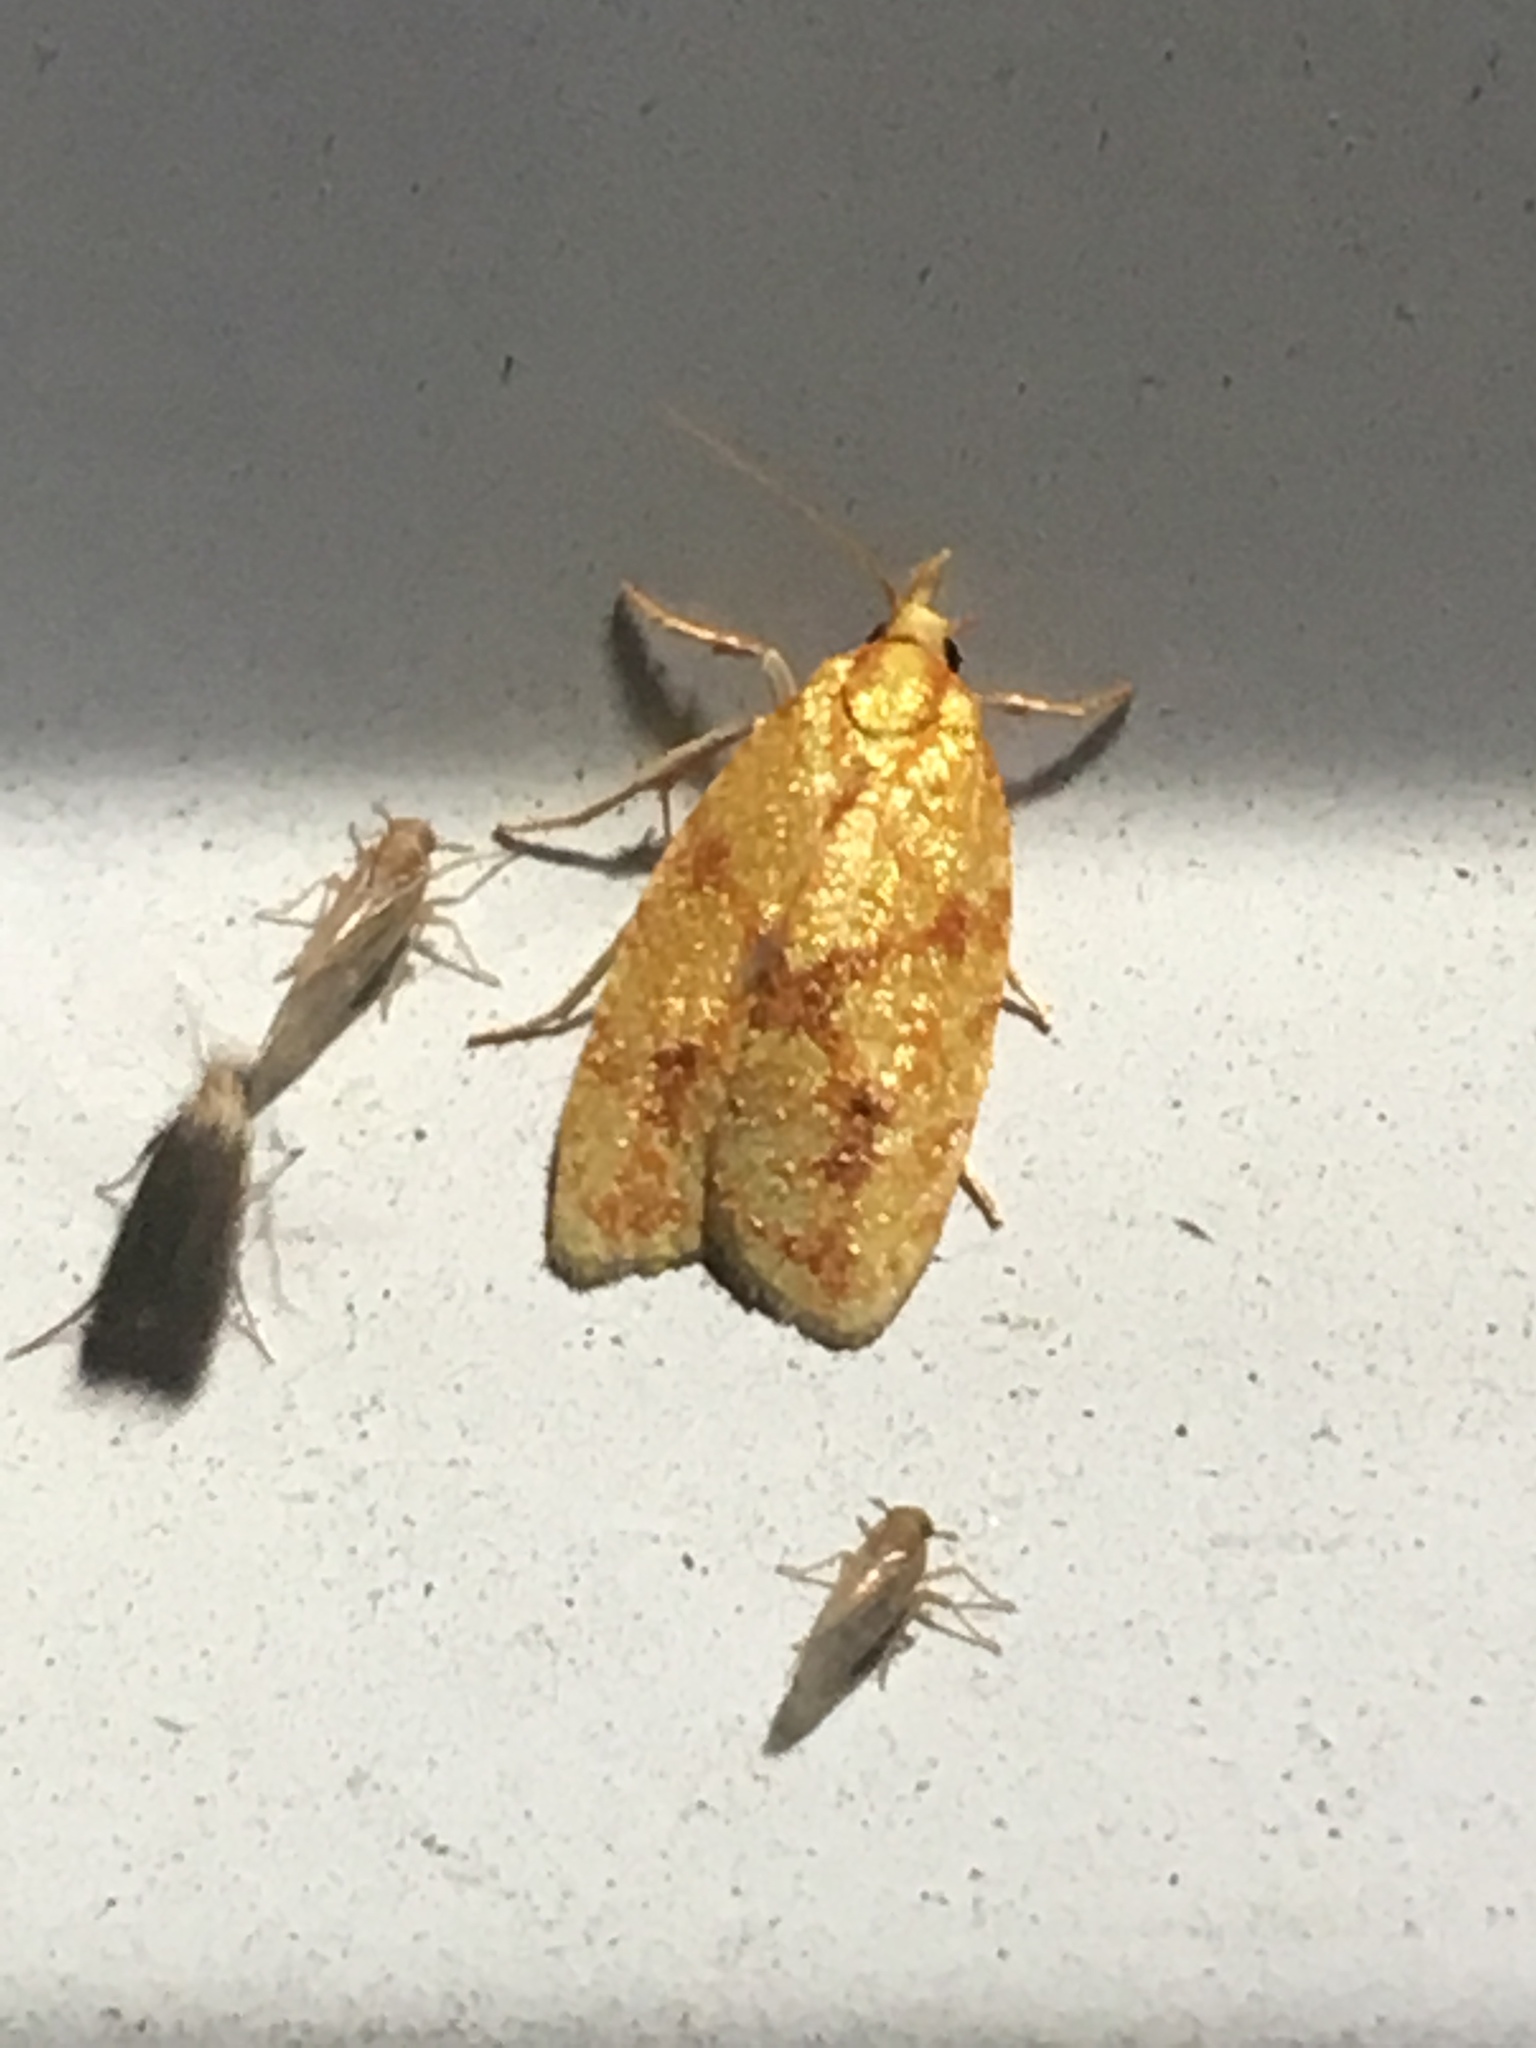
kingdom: Animalia
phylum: Arthropoda
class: Insecta
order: Lepidoptera
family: Tortricidae
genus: Sparganothis
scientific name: Sparganothis sulfureana
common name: Sparganothis fruitworm moth
